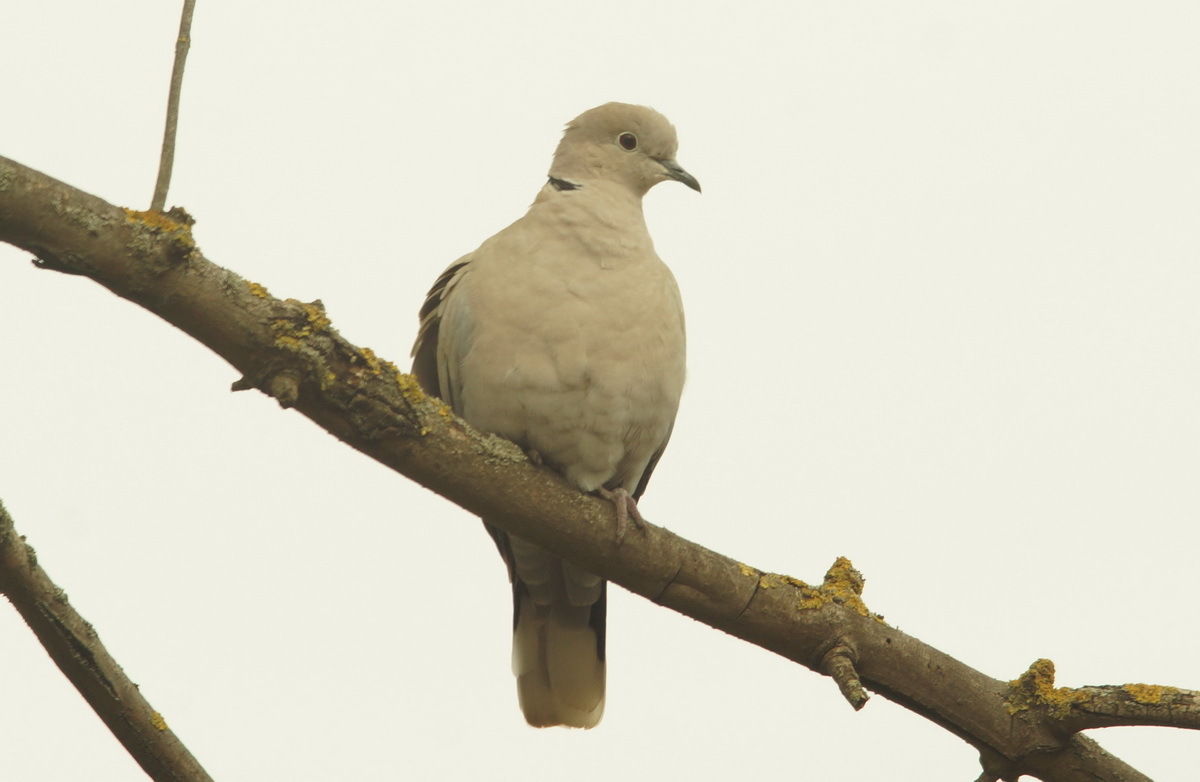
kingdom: Animalia
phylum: Chordata
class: Aves
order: Columbiformes
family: Columbidae
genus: Streptopelia
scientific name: Streptopelia decaocto
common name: Eurasian collared dove
